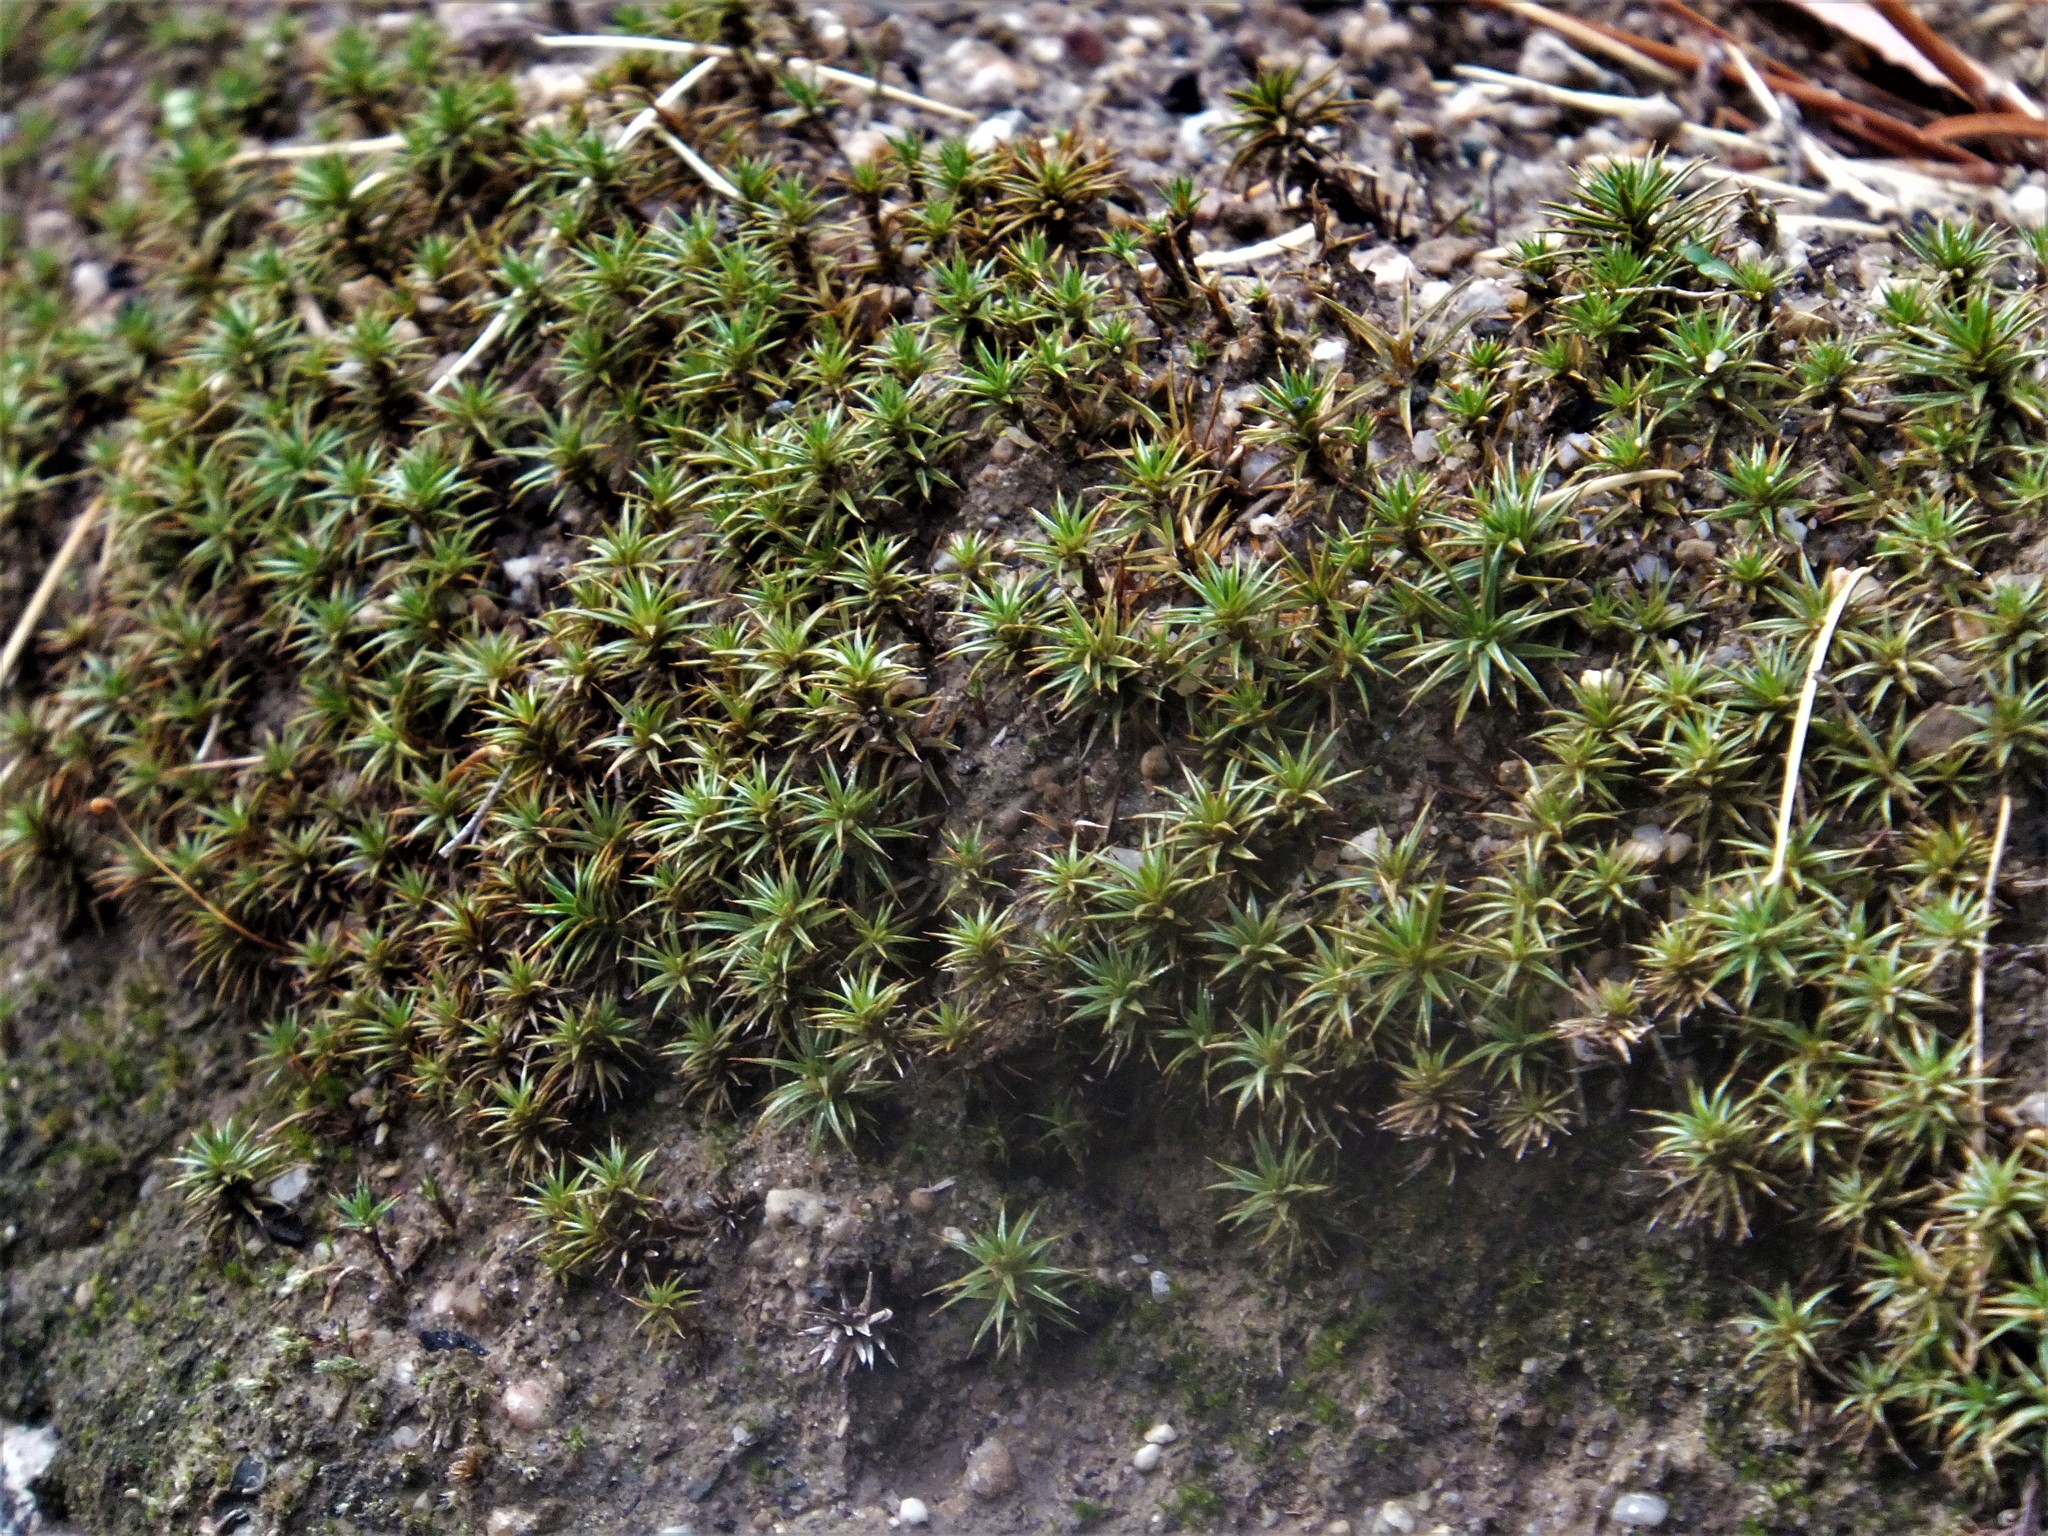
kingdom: Plantae
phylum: Bryophyta
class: Polytrichopsida
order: Polytrichales
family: Polytrichaceae
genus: Polytrichum
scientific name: Polytrichum juniperinum
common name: Juniper haircap moss
